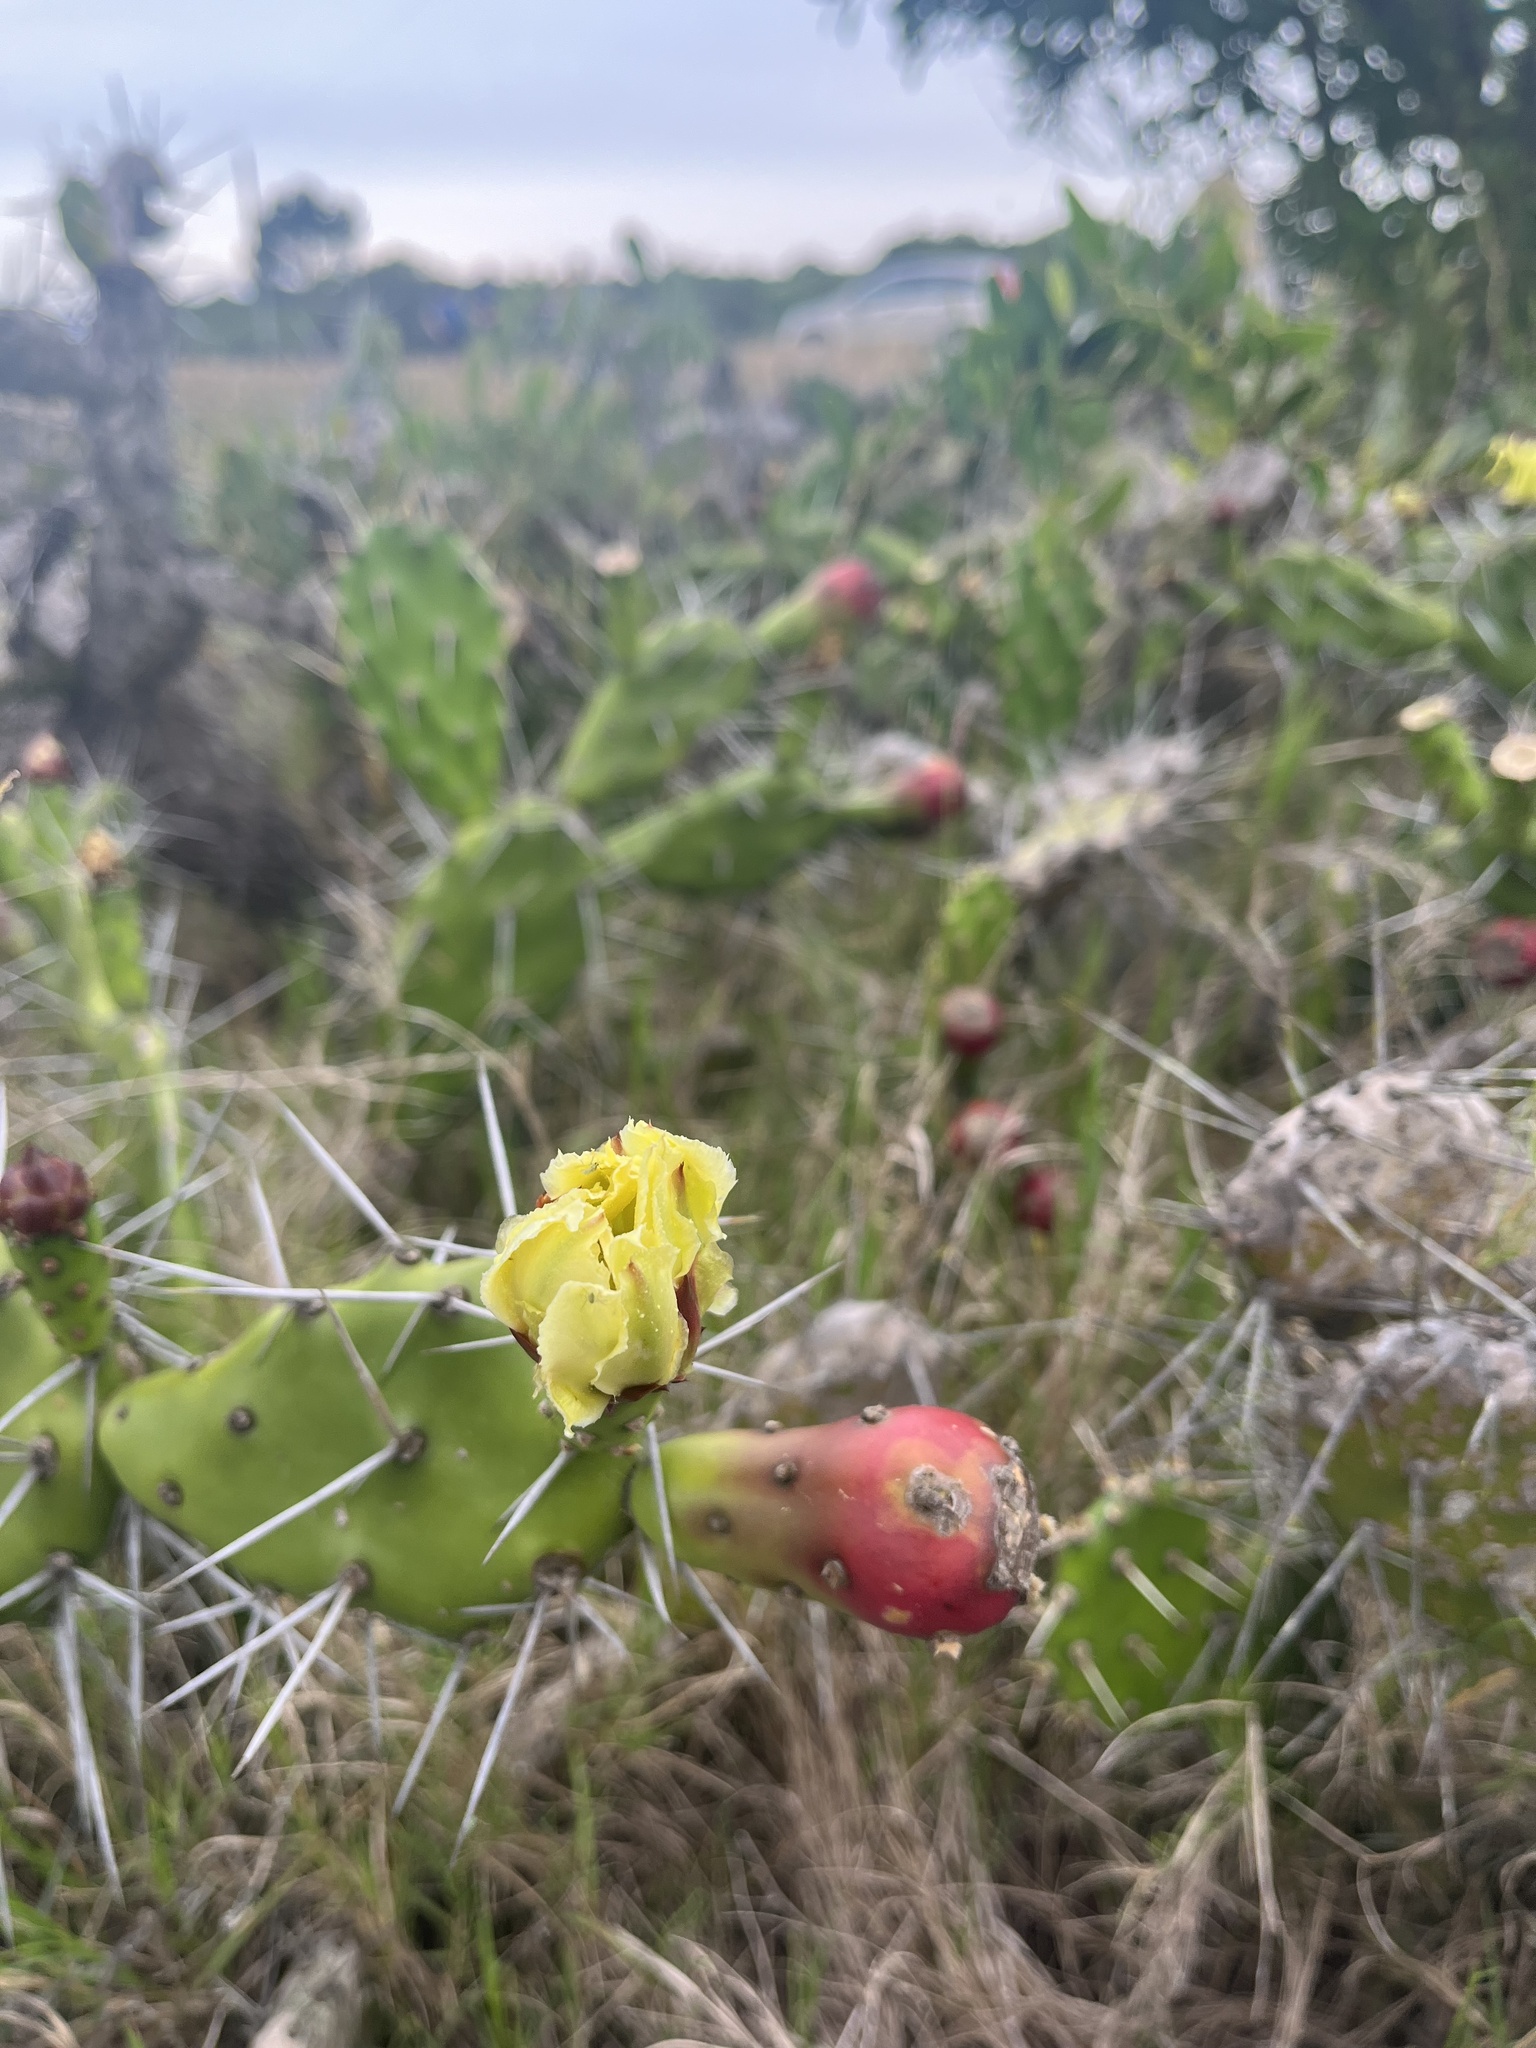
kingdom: Plantae
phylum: Tracheophyta
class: Magnoliopsida
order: Caryophyllales
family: Cactaceae
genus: Opuntia
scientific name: Opuntia arechavaletae
